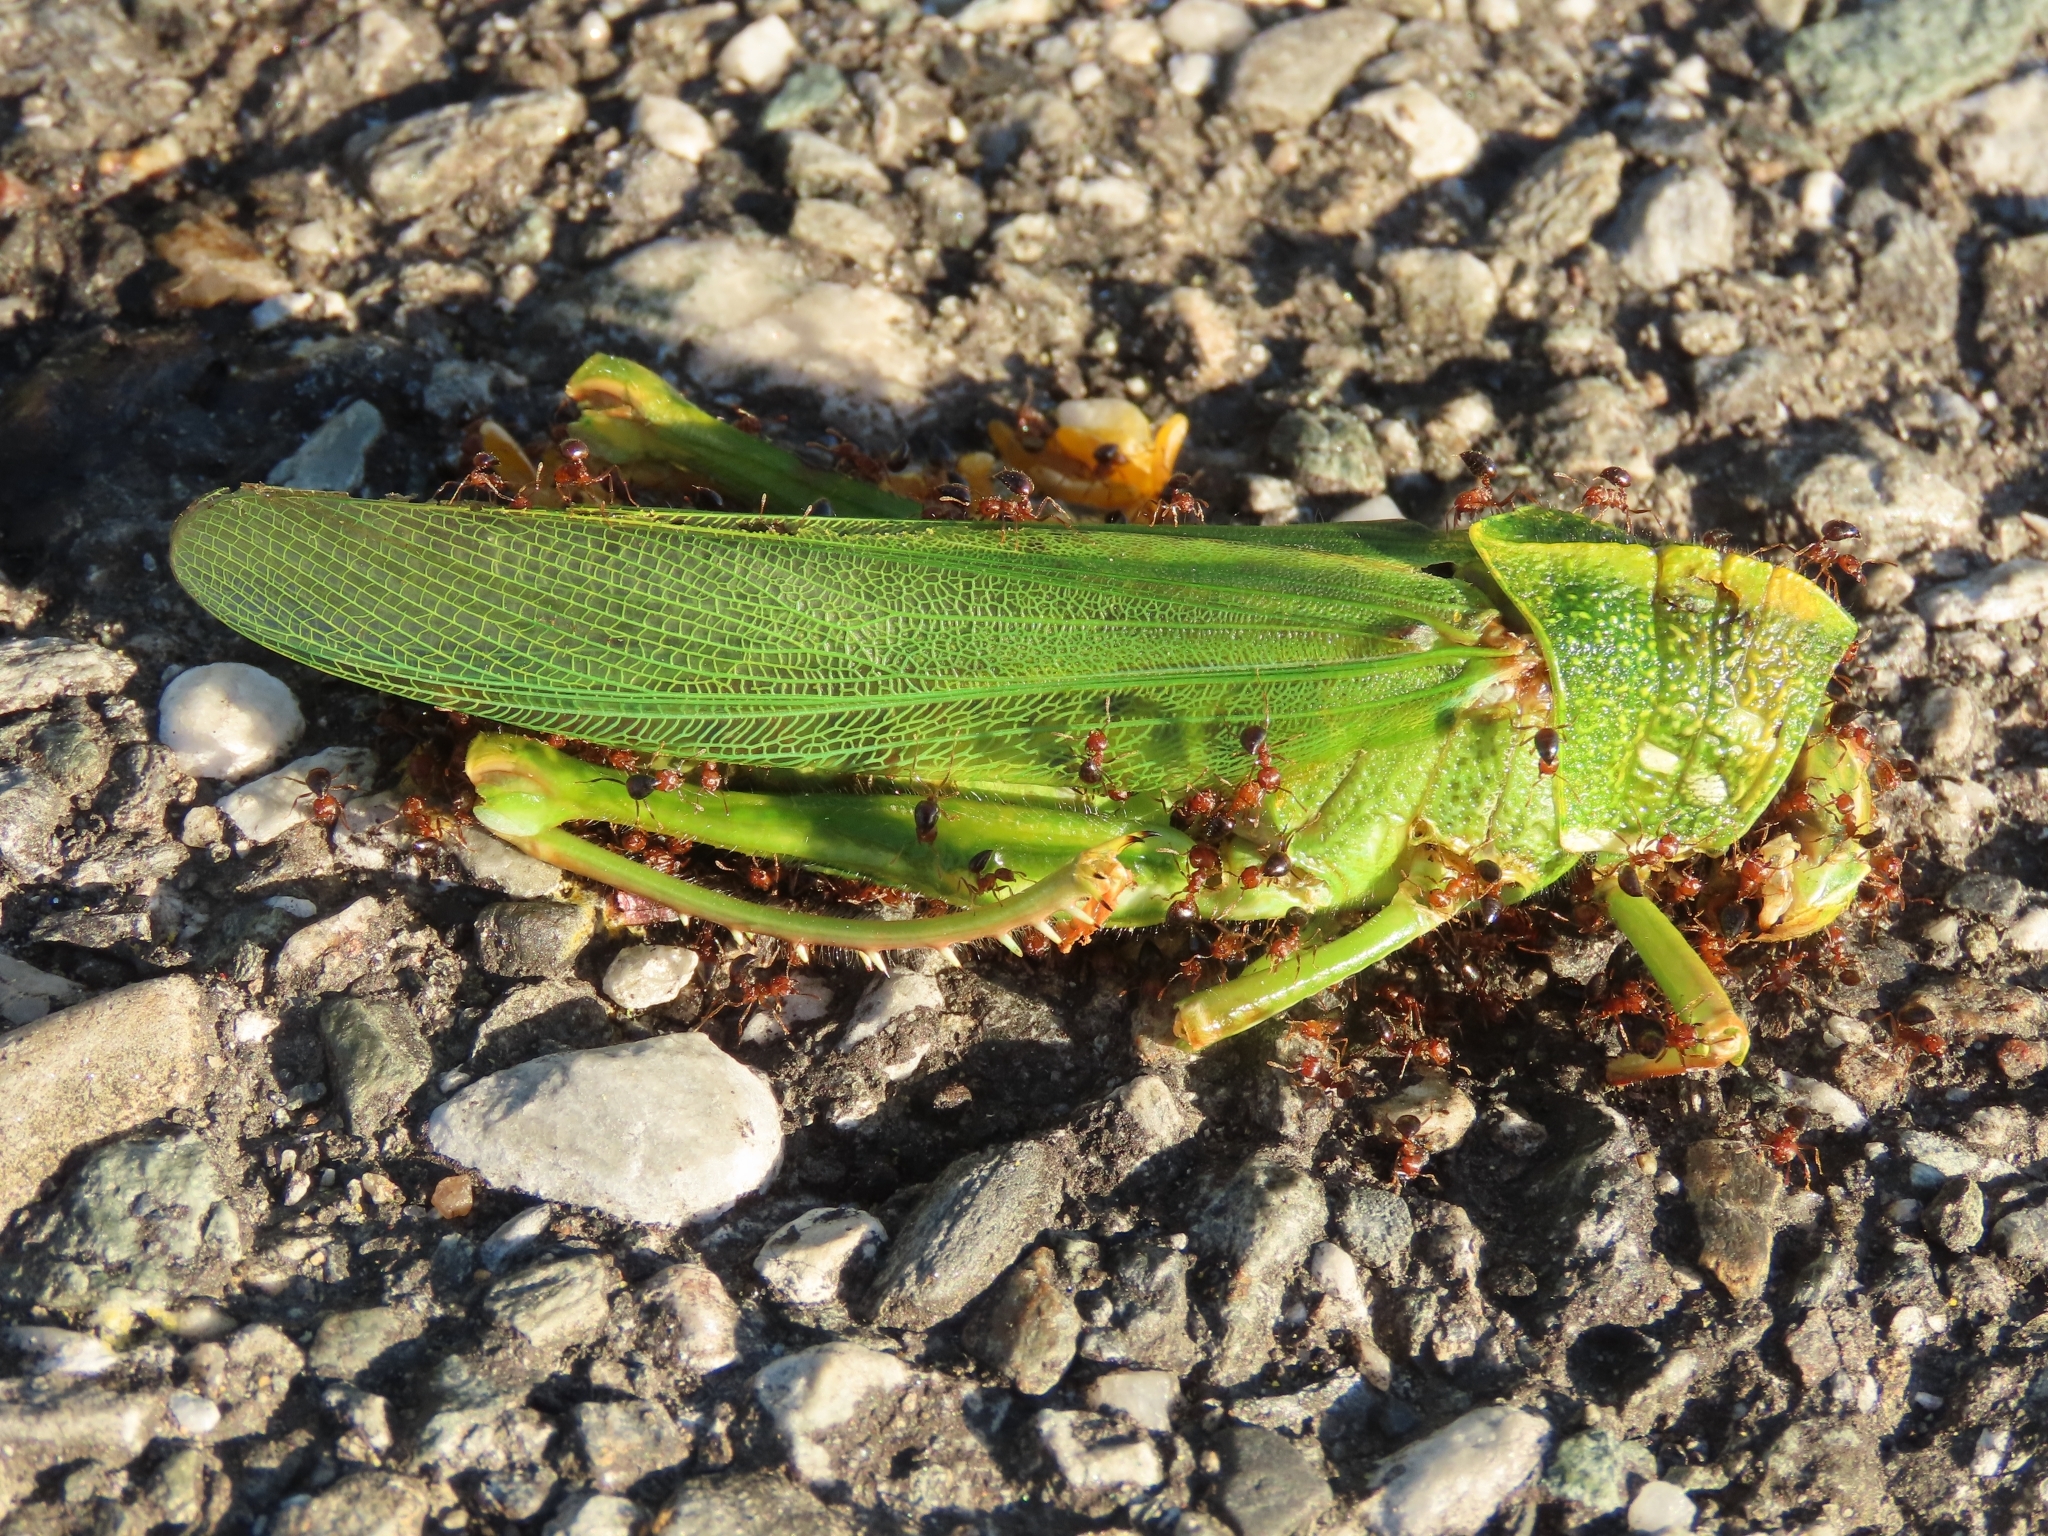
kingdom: Animalia
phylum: Arthropoda
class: Insecta
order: Orthoptera
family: Acrididae
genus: Chondracris
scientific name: Chondracris rosea
